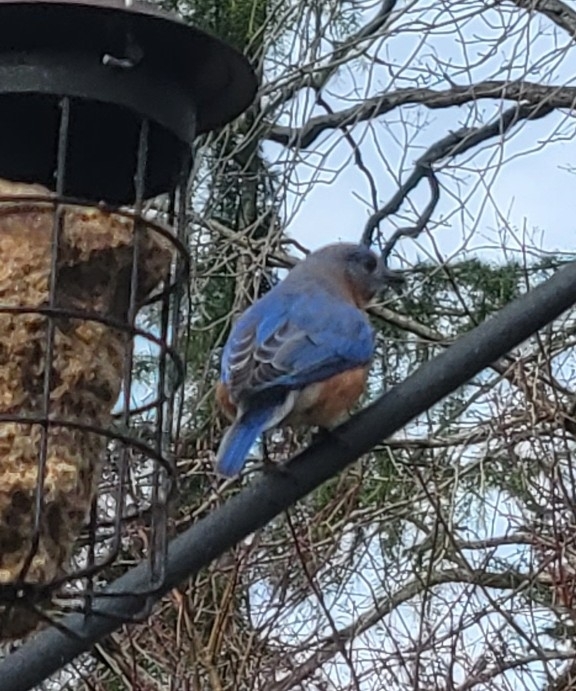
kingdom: Animalia
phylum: Chordata
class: Aves
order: Passeriformes
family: Turdidae
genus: Sialia
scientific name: Sialia sialis
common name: Eastern bluebird
